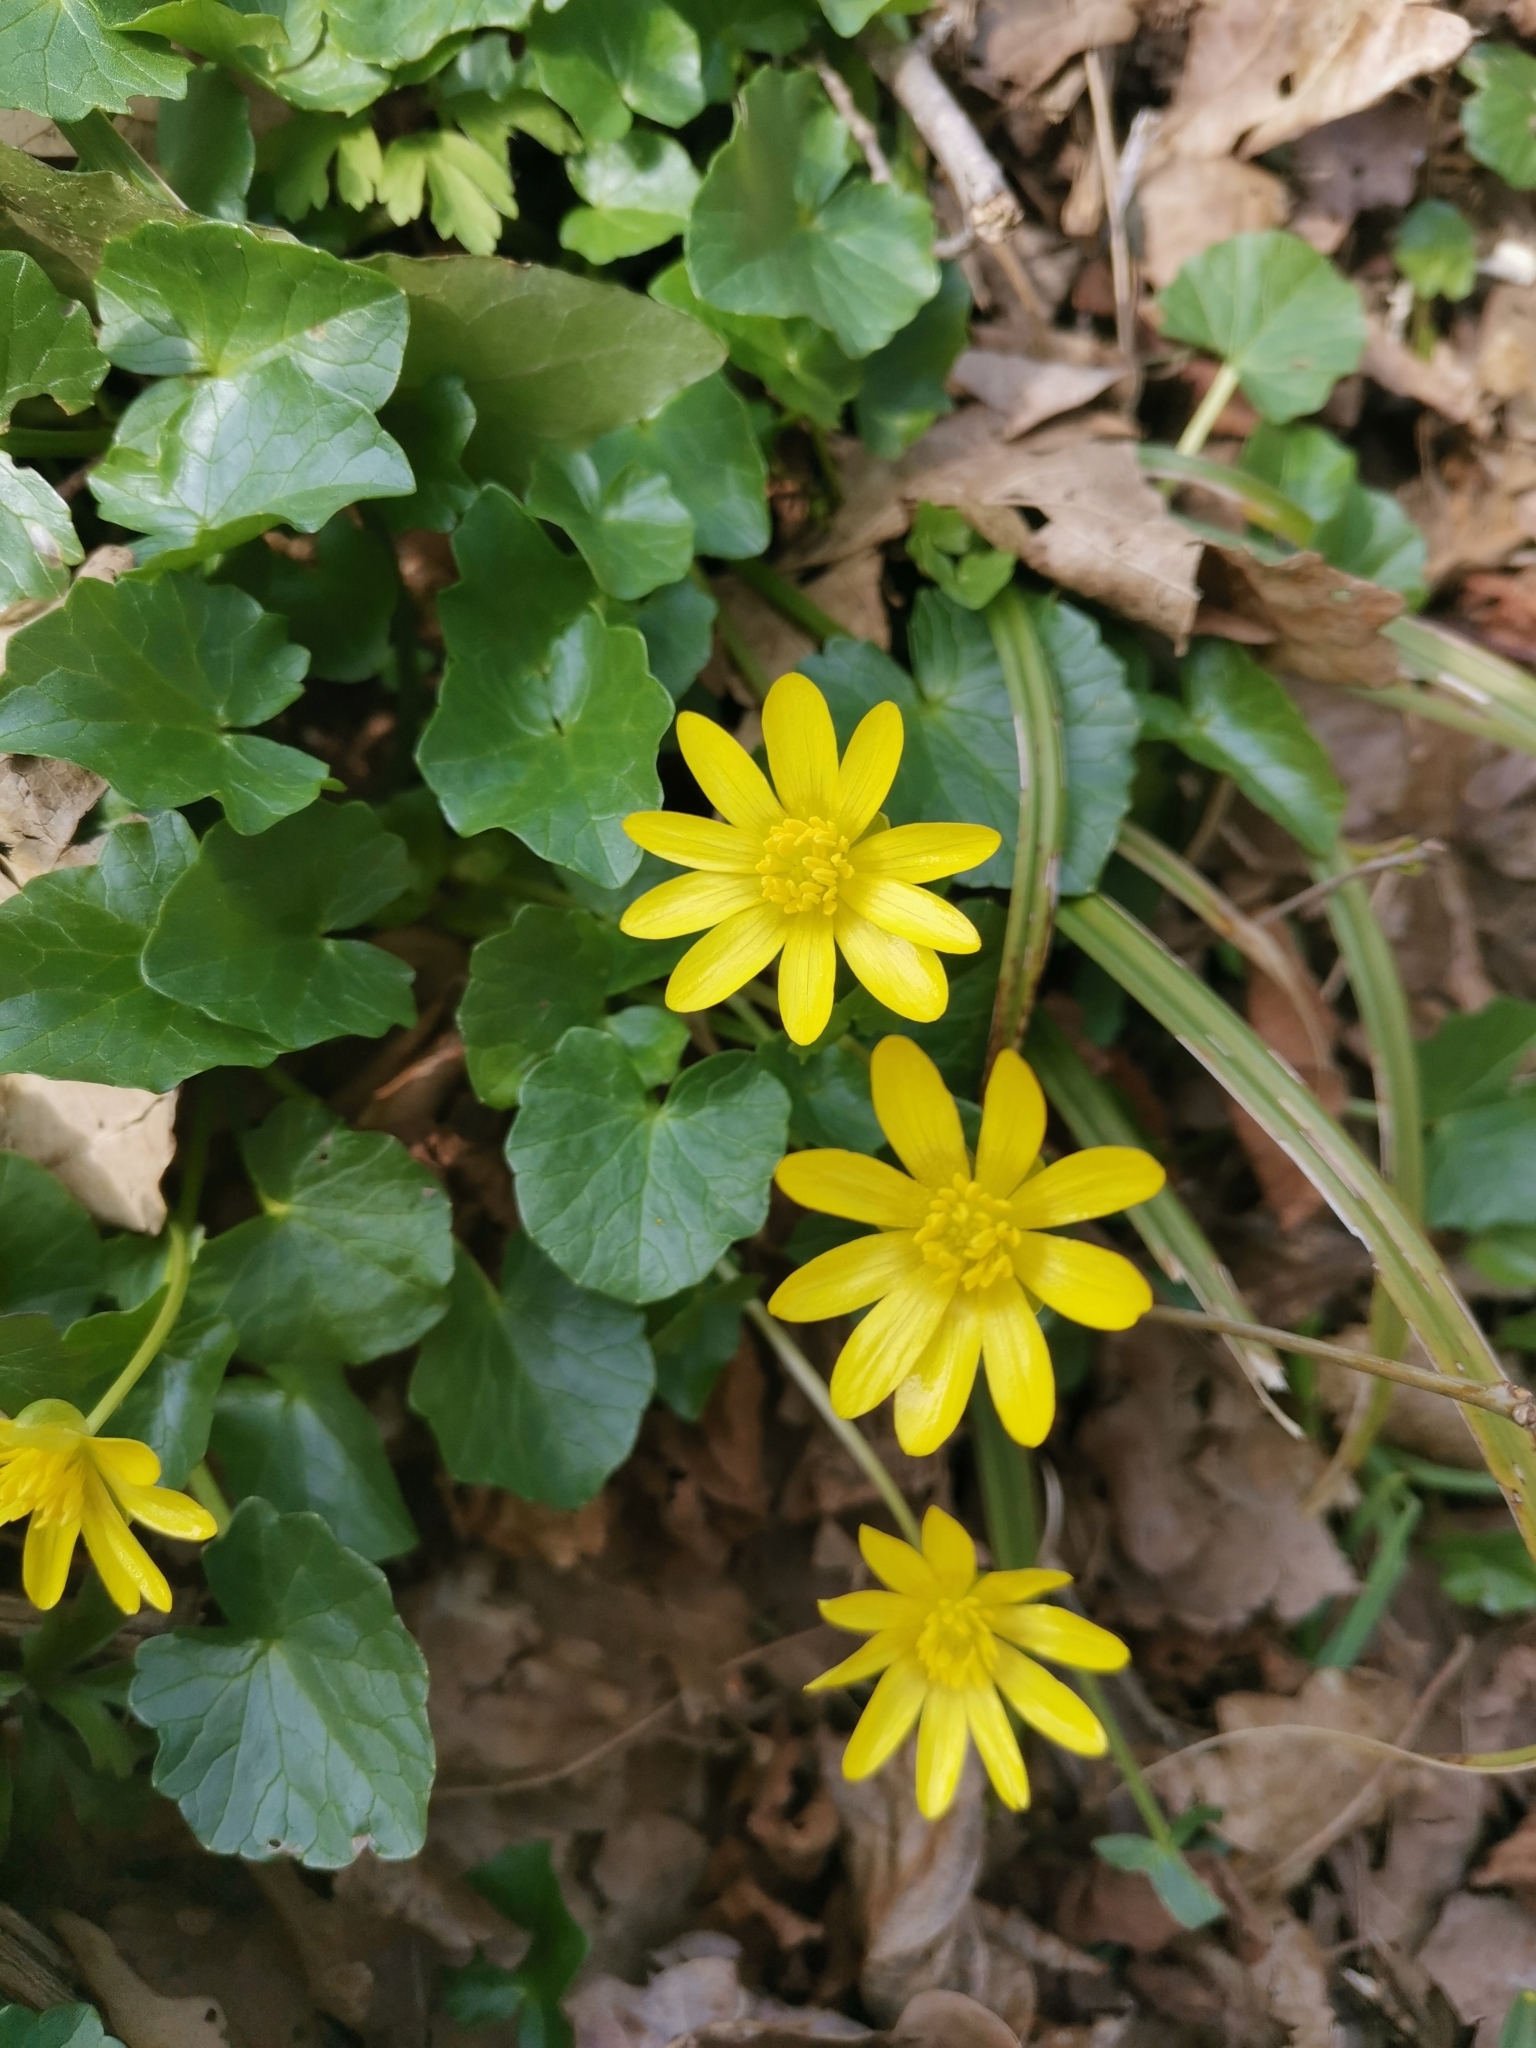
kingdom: Plantae
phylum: Tracheophyta
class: Magnoliopsida
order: Ranunculales
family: Ranunculaceae
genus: Ficaria
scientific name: Ficaria verna
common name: Lesser celandine
